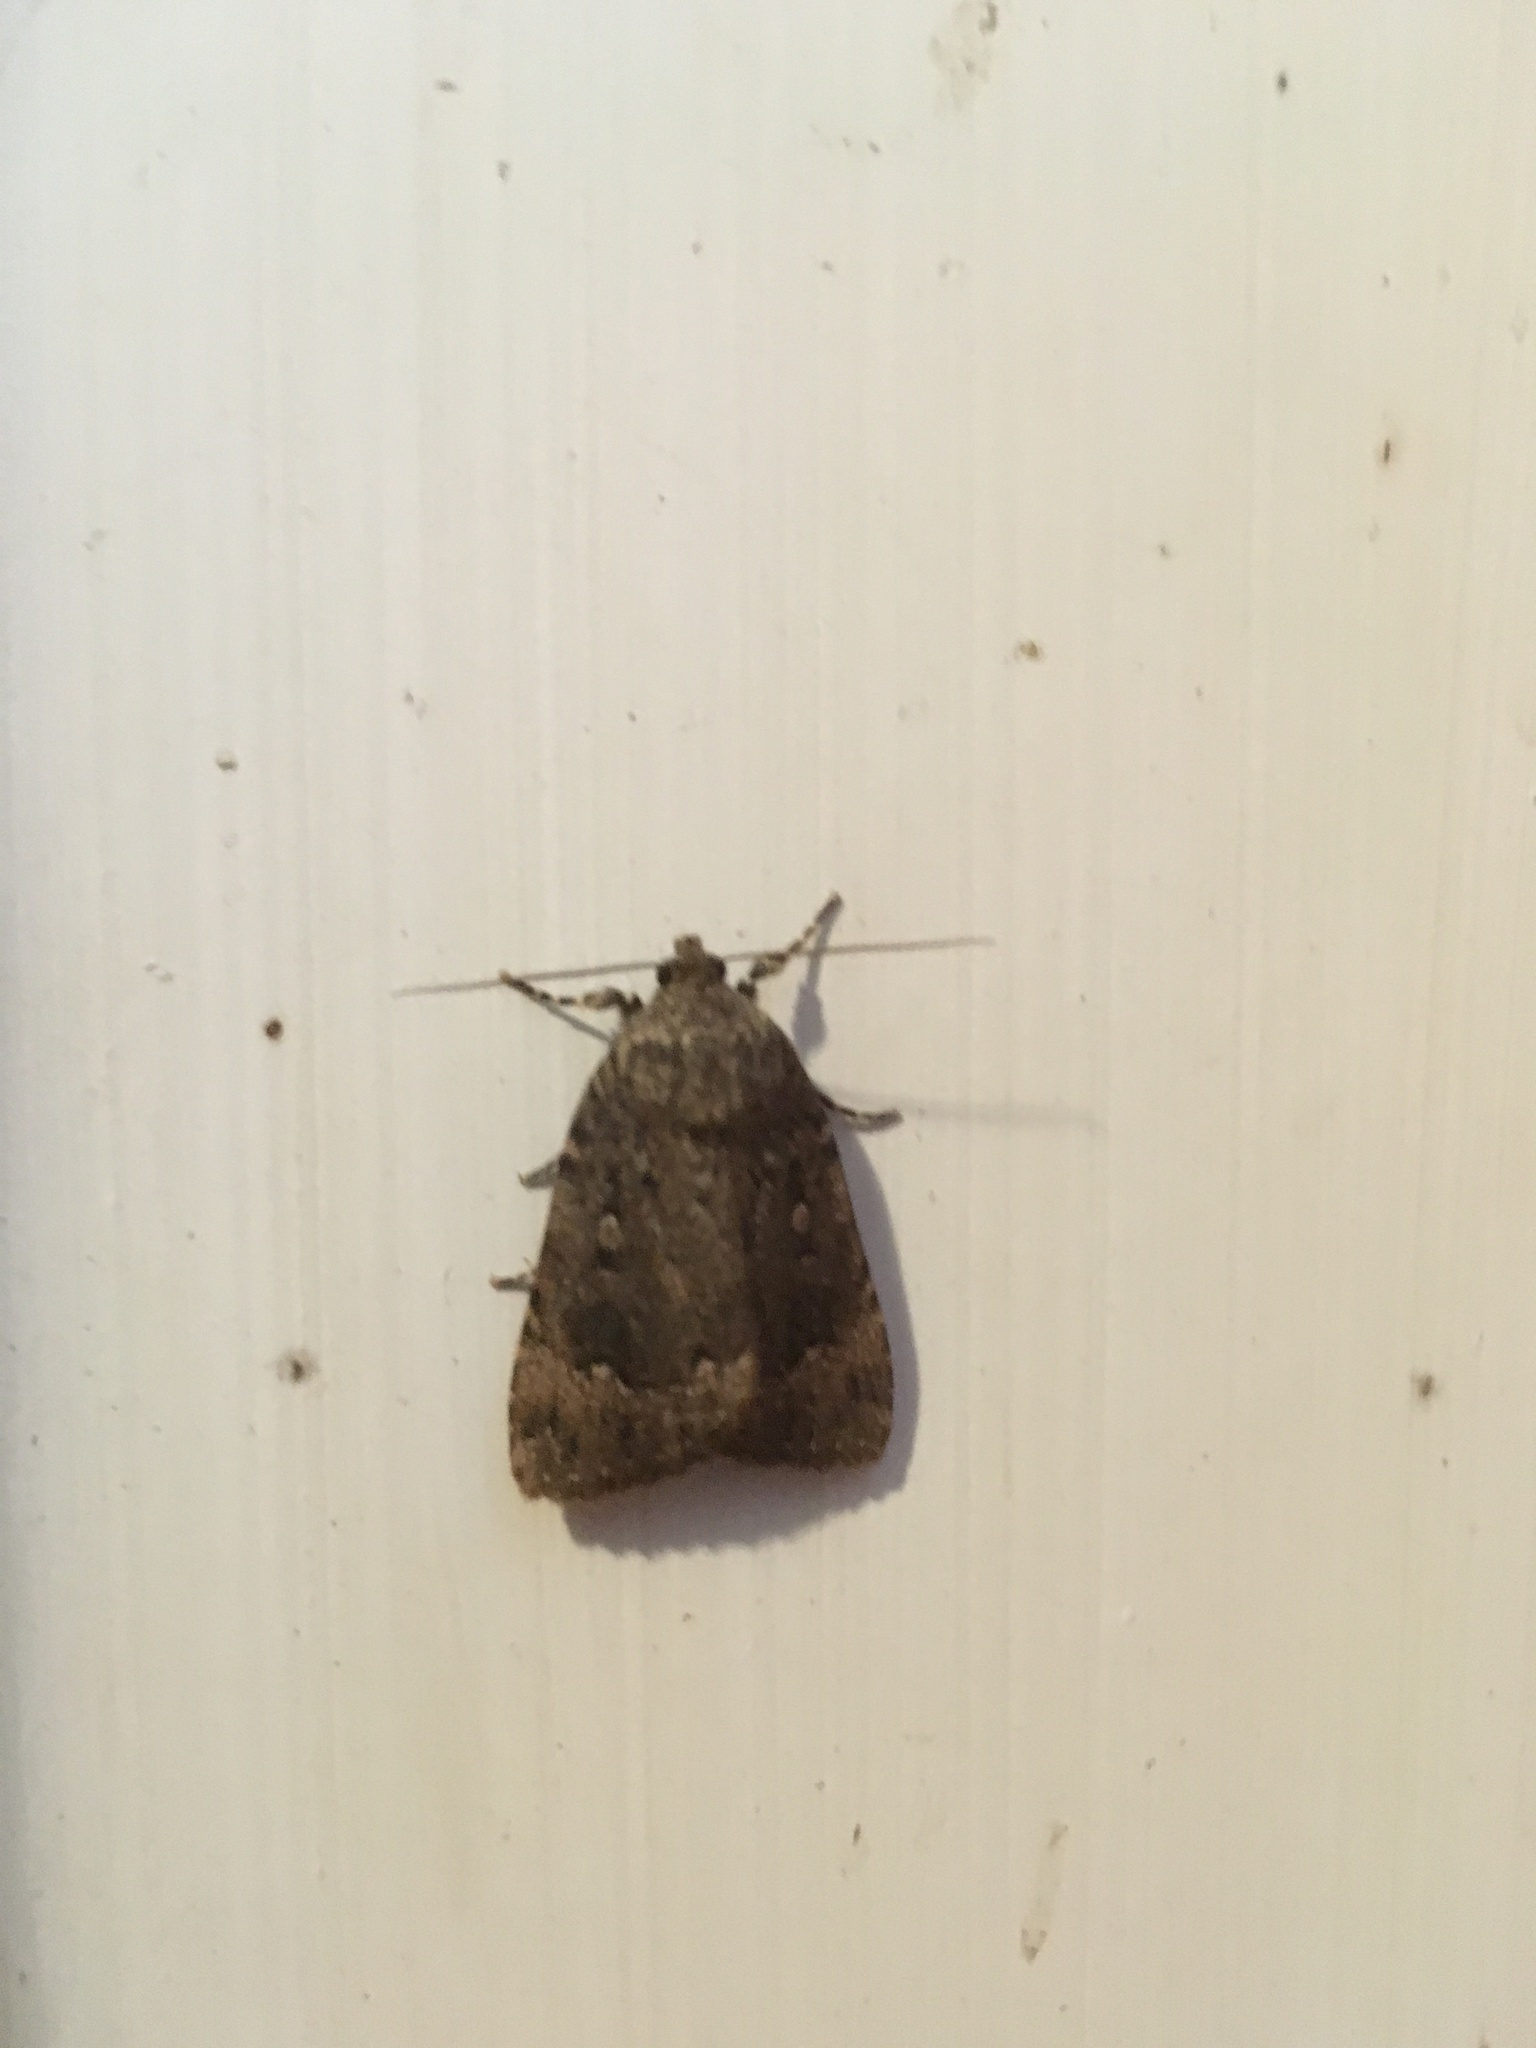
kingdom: Animalia
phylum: Arthropoda
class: Insecta
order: Lepidoptera
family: Noctuidae
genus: Amphipyra
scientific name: Amphipyra pyramidoides
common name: American copper underwing
